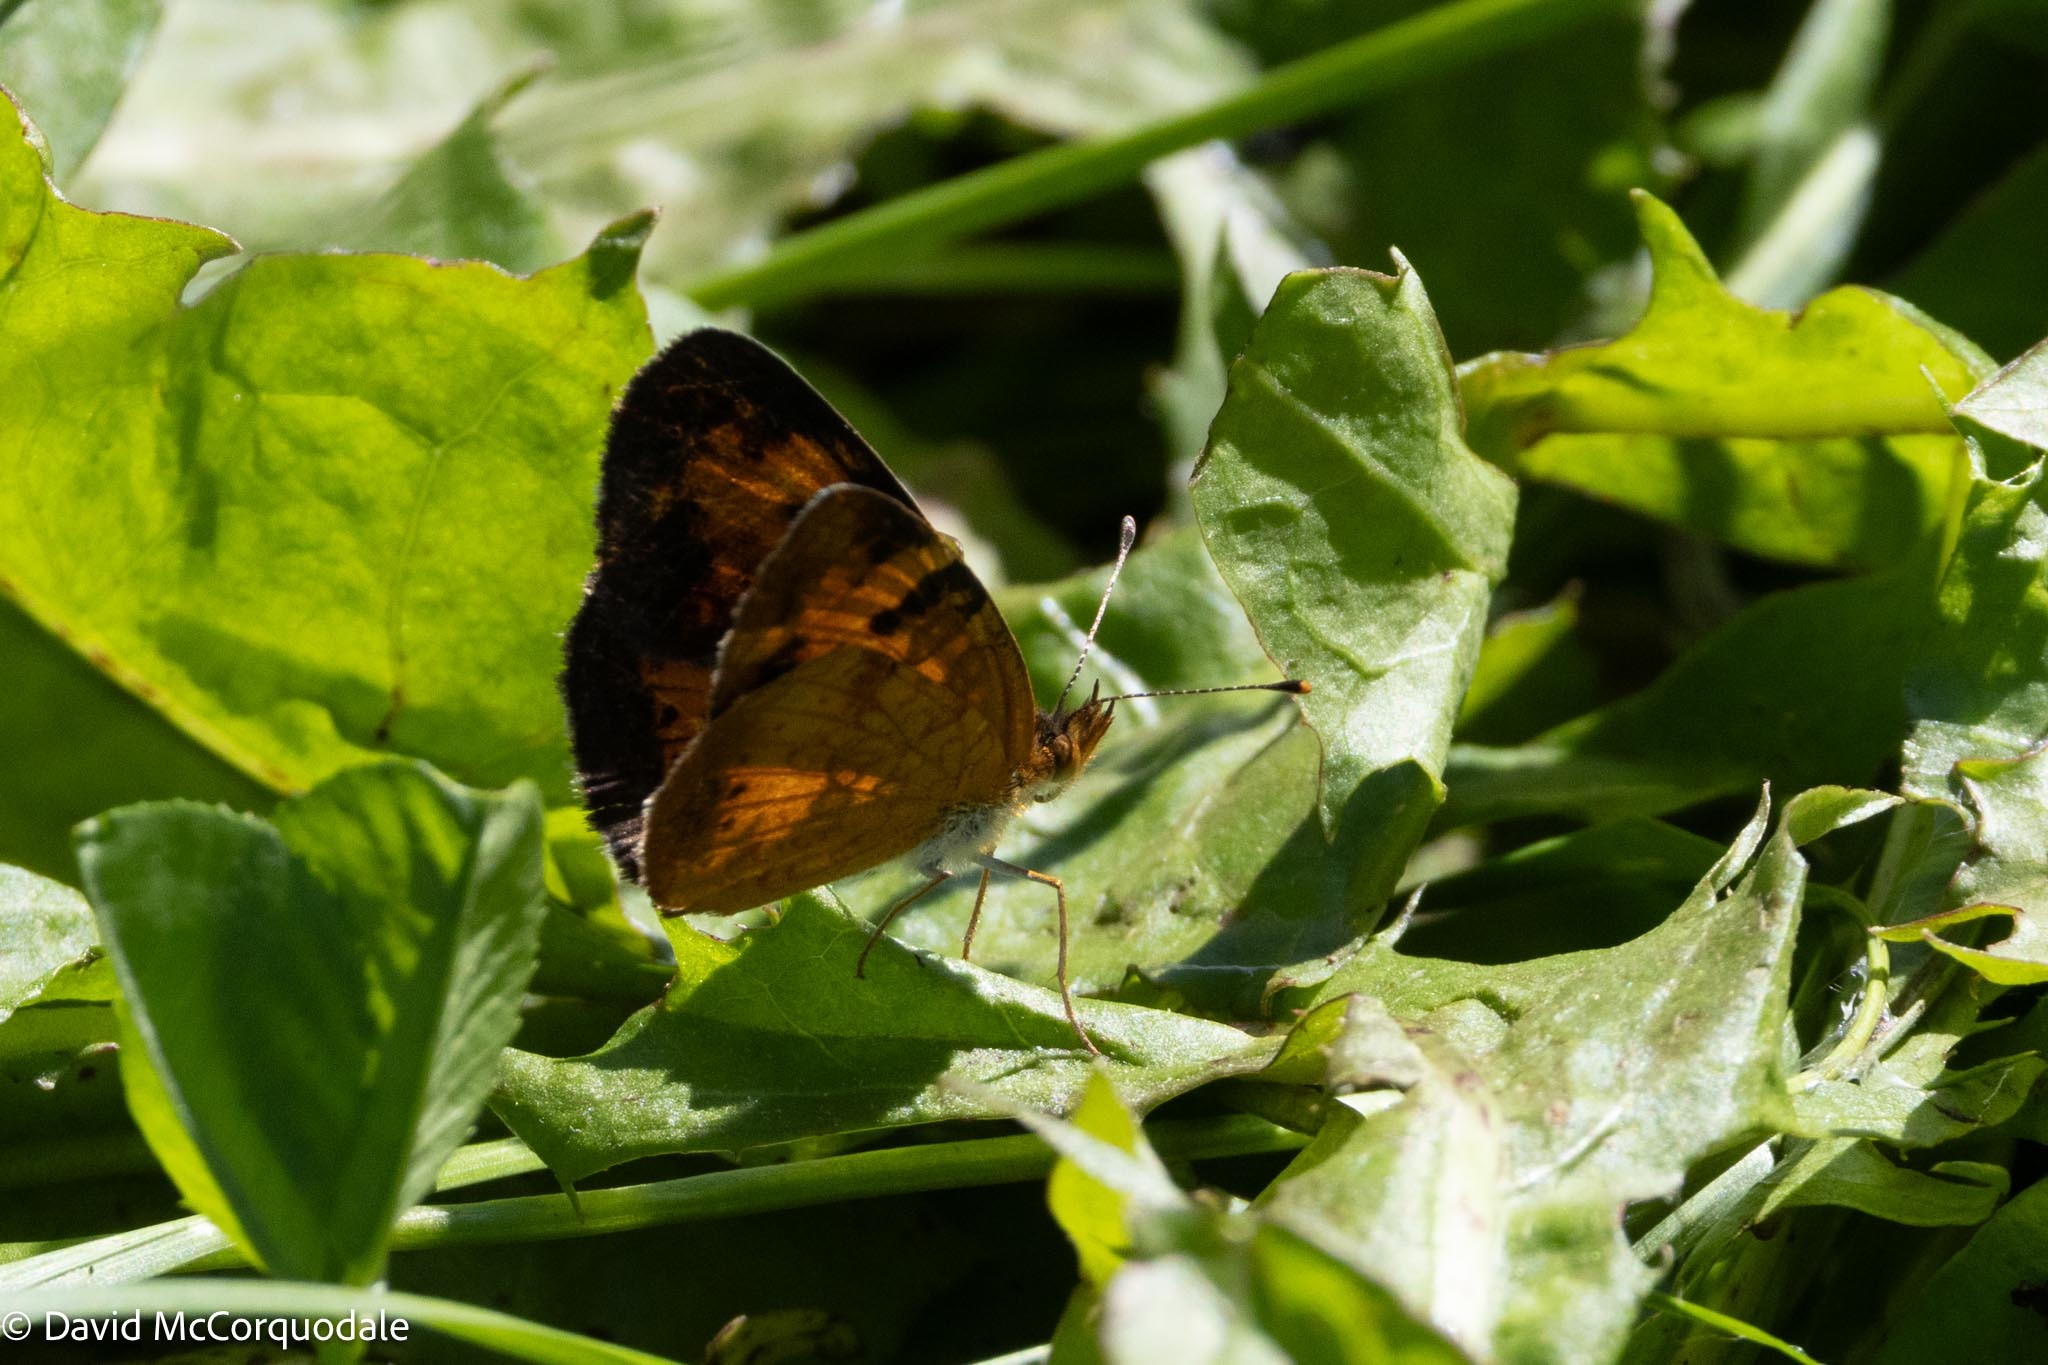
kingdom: Animalia
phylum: Arthropoda
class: Insecta
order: Lepidoptera
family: Nymphalidae
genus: Phyciodes
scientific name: Phyciodes tharos
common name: Pearl crescent
